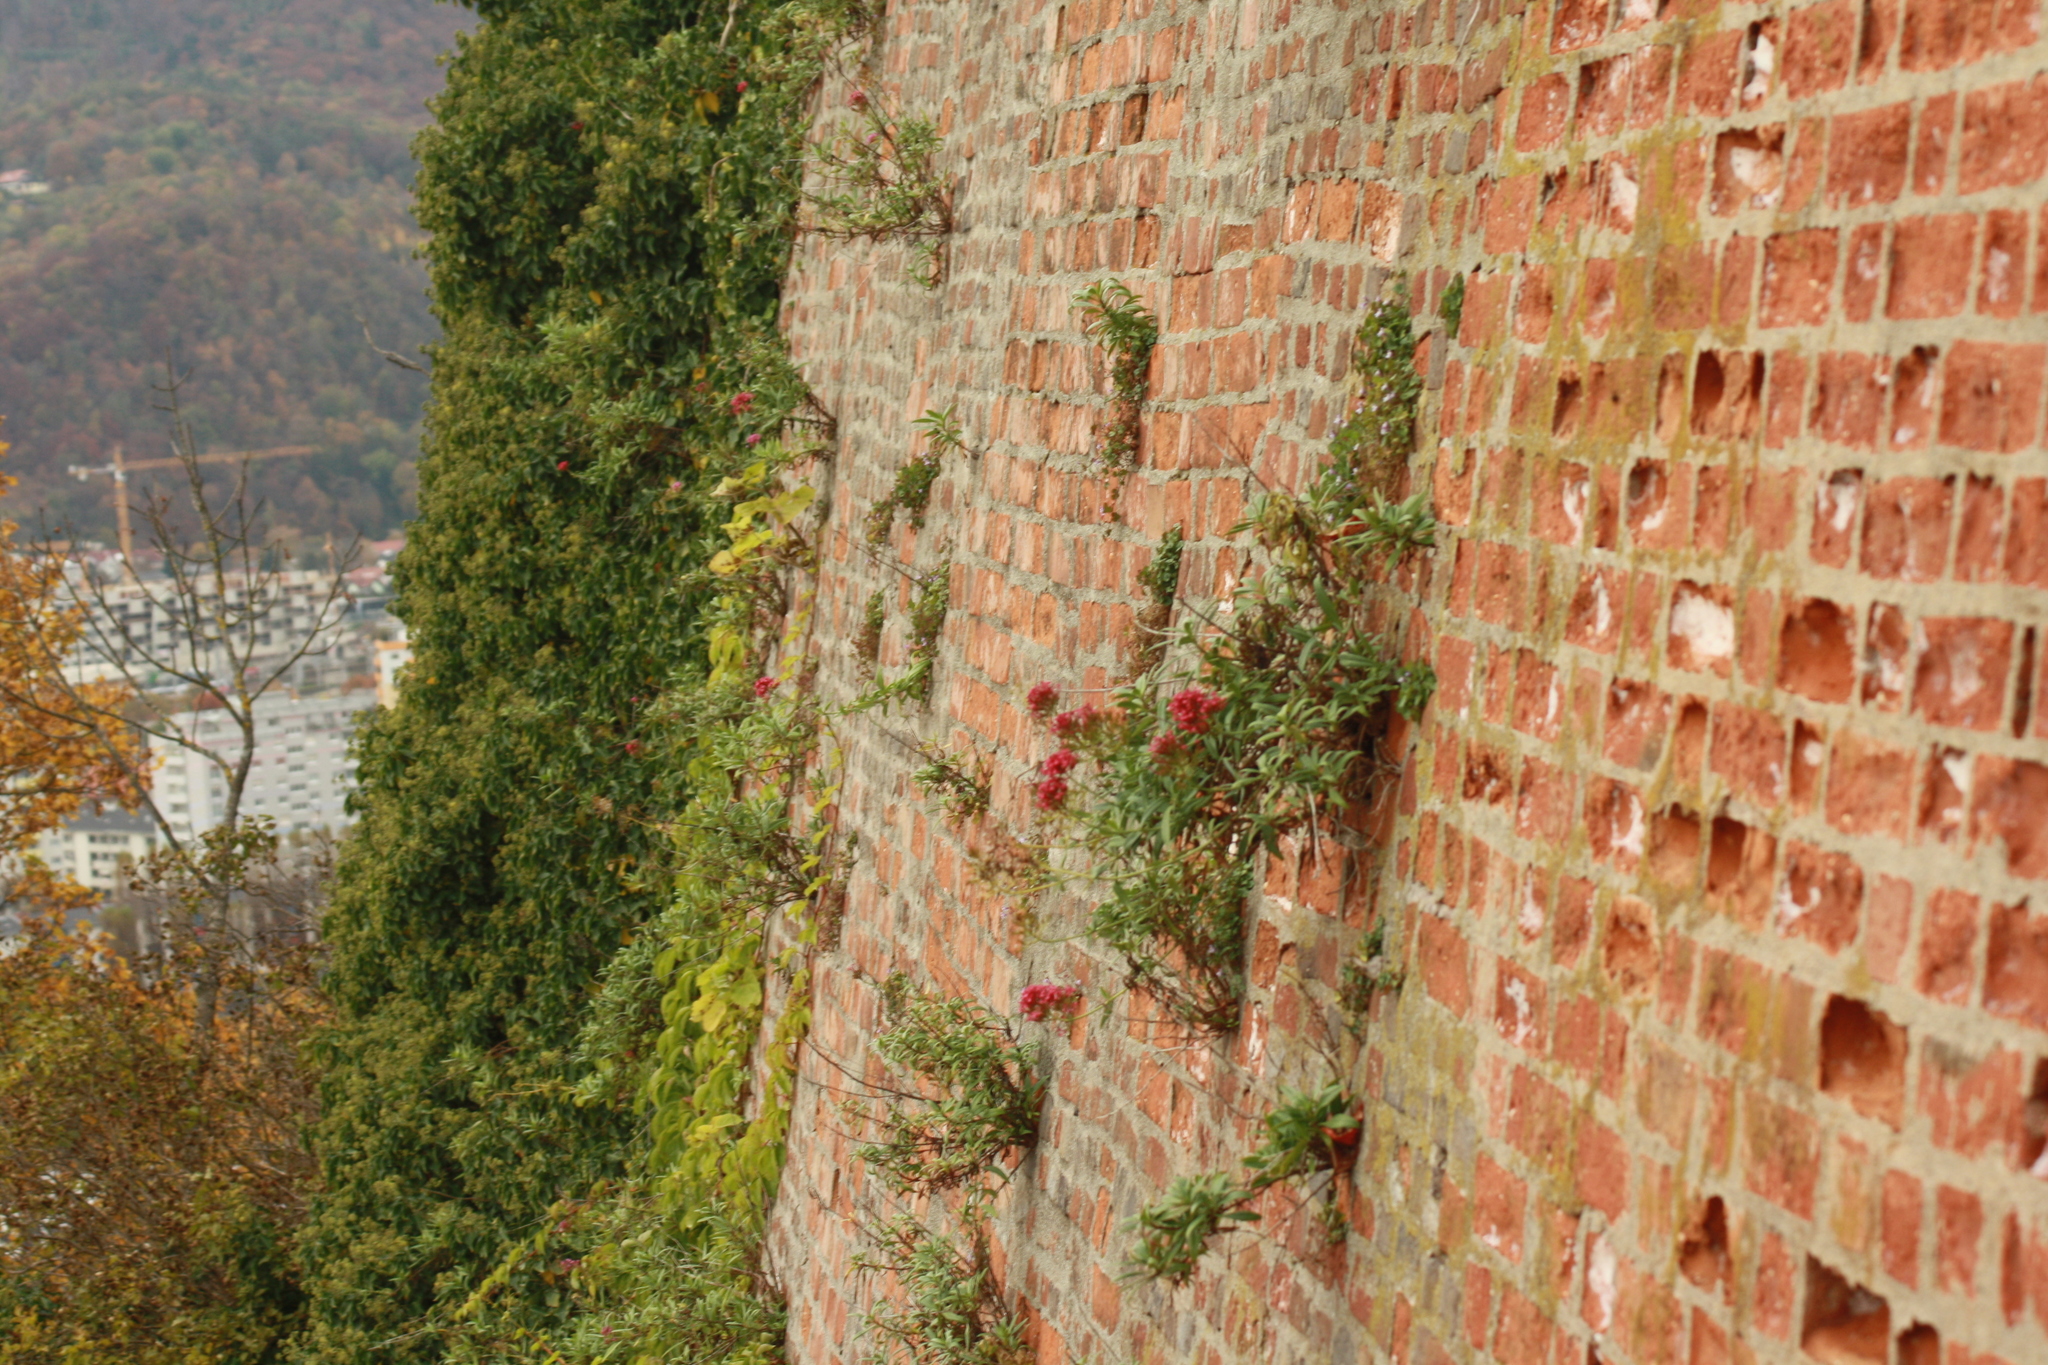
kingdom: Plantae
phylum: Tracheophyta
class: Magnoliopsida
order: Dipsacales
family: Caprifoliaceae
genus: Centranthus
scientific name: Centranthus ruber
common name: Red valerian
